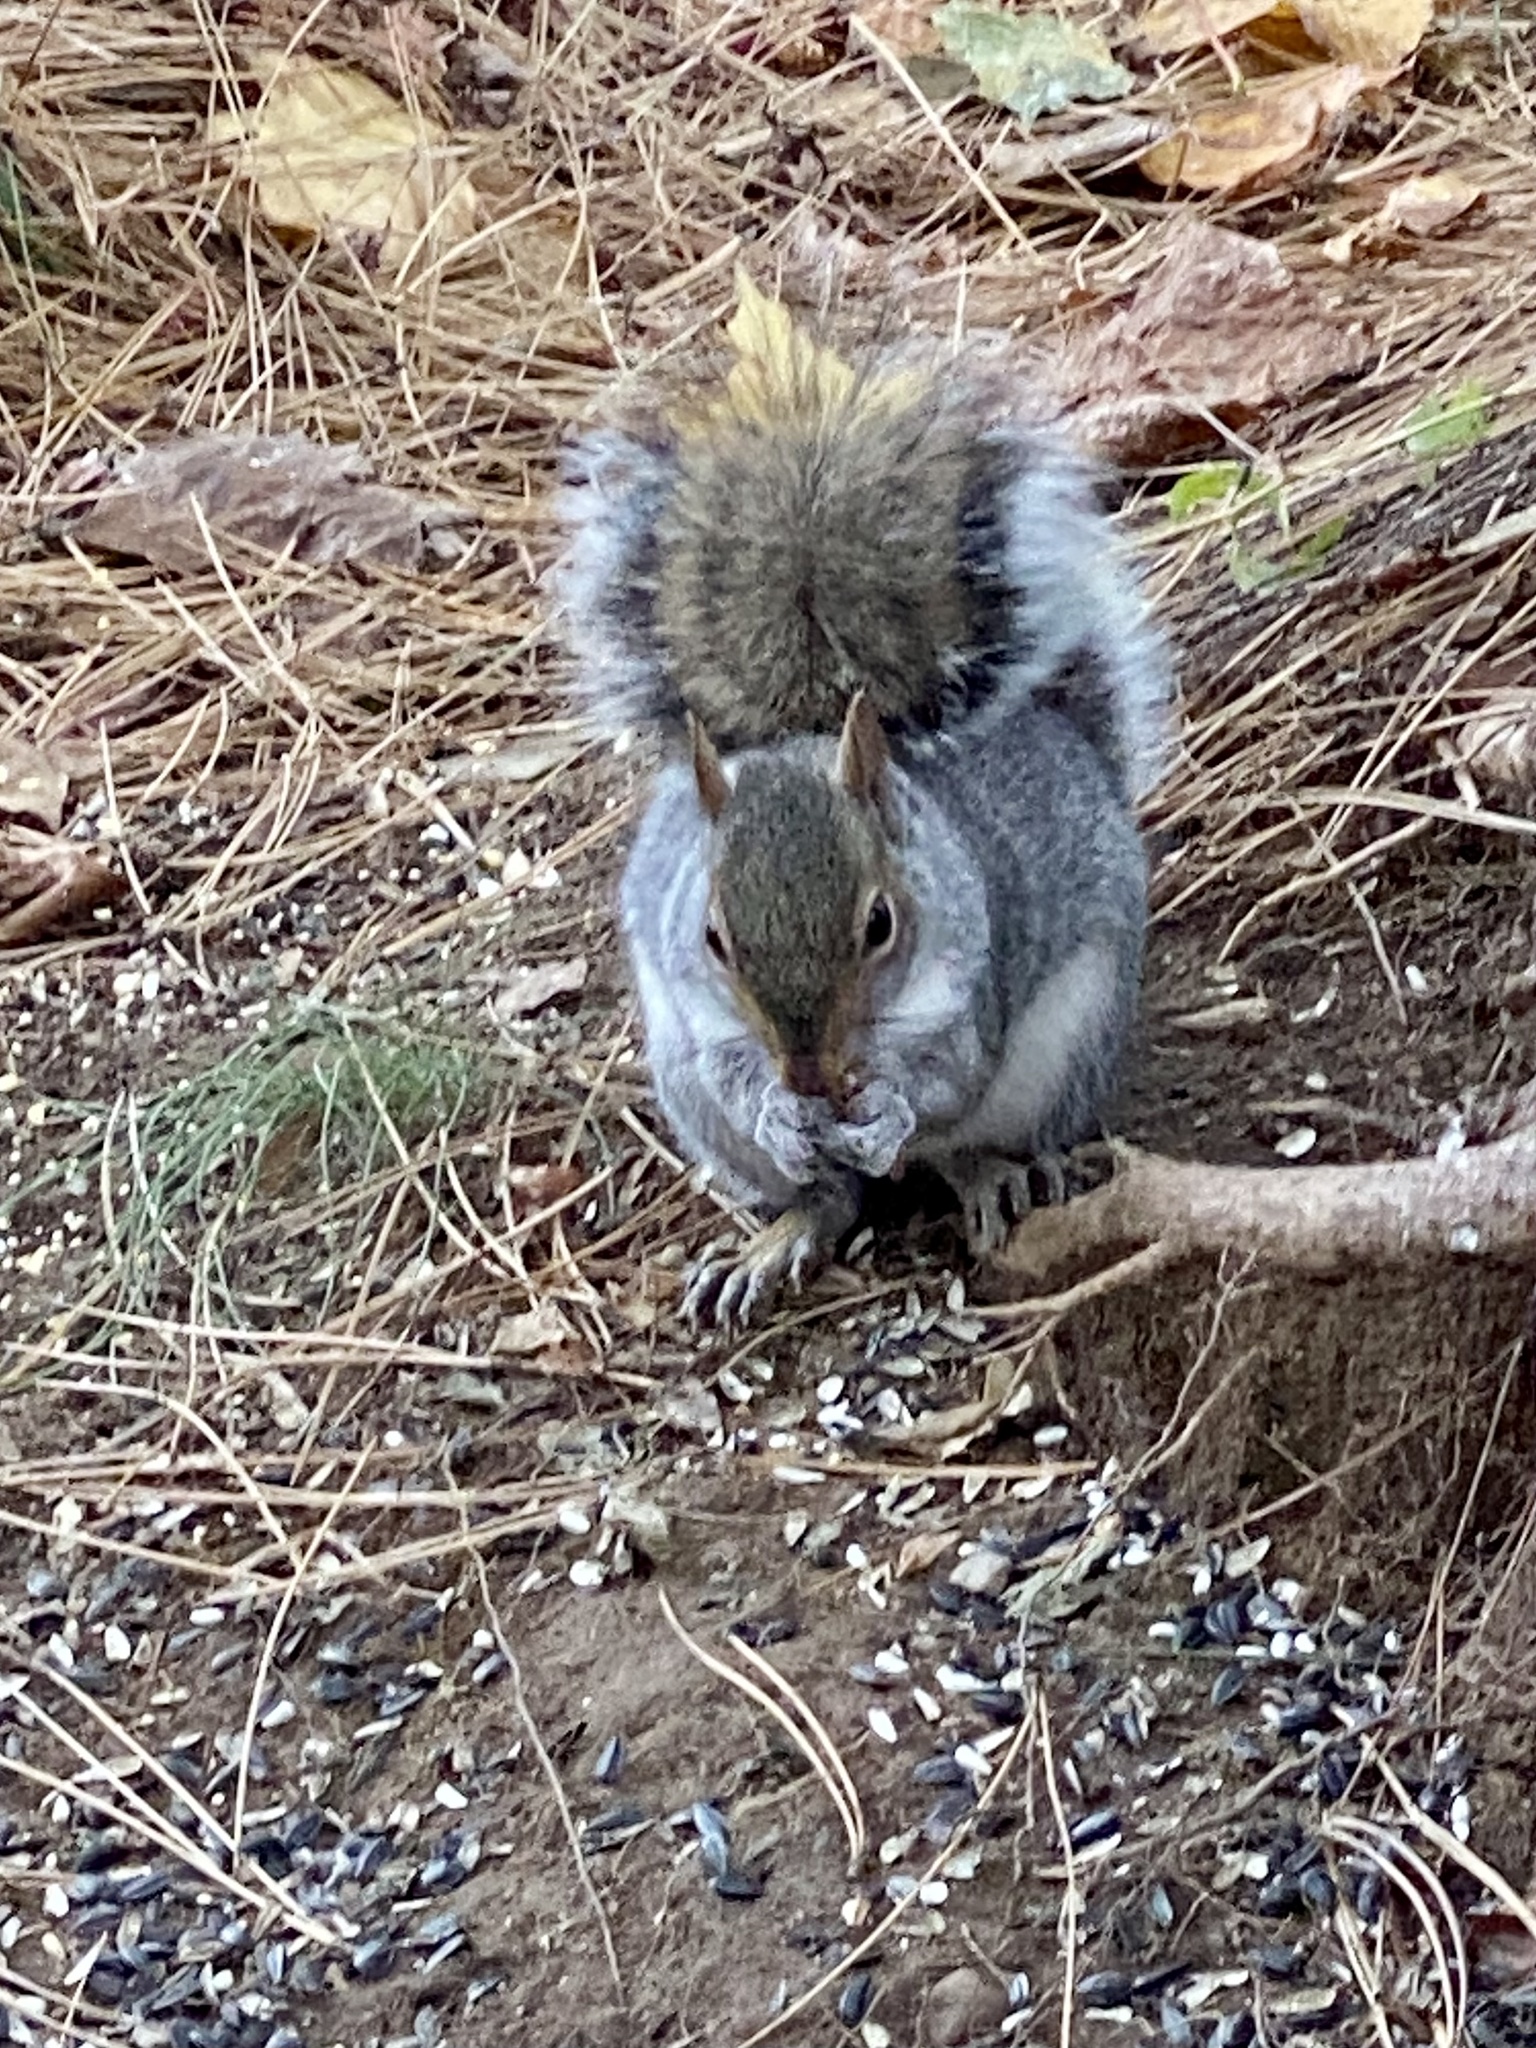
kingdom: Animalia
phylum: Chordata
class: Mammalia
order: Rodentia
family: Sciuridae
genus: Sciurus
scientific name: Sciurus carolinensis
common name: Eastern gray squirrel
